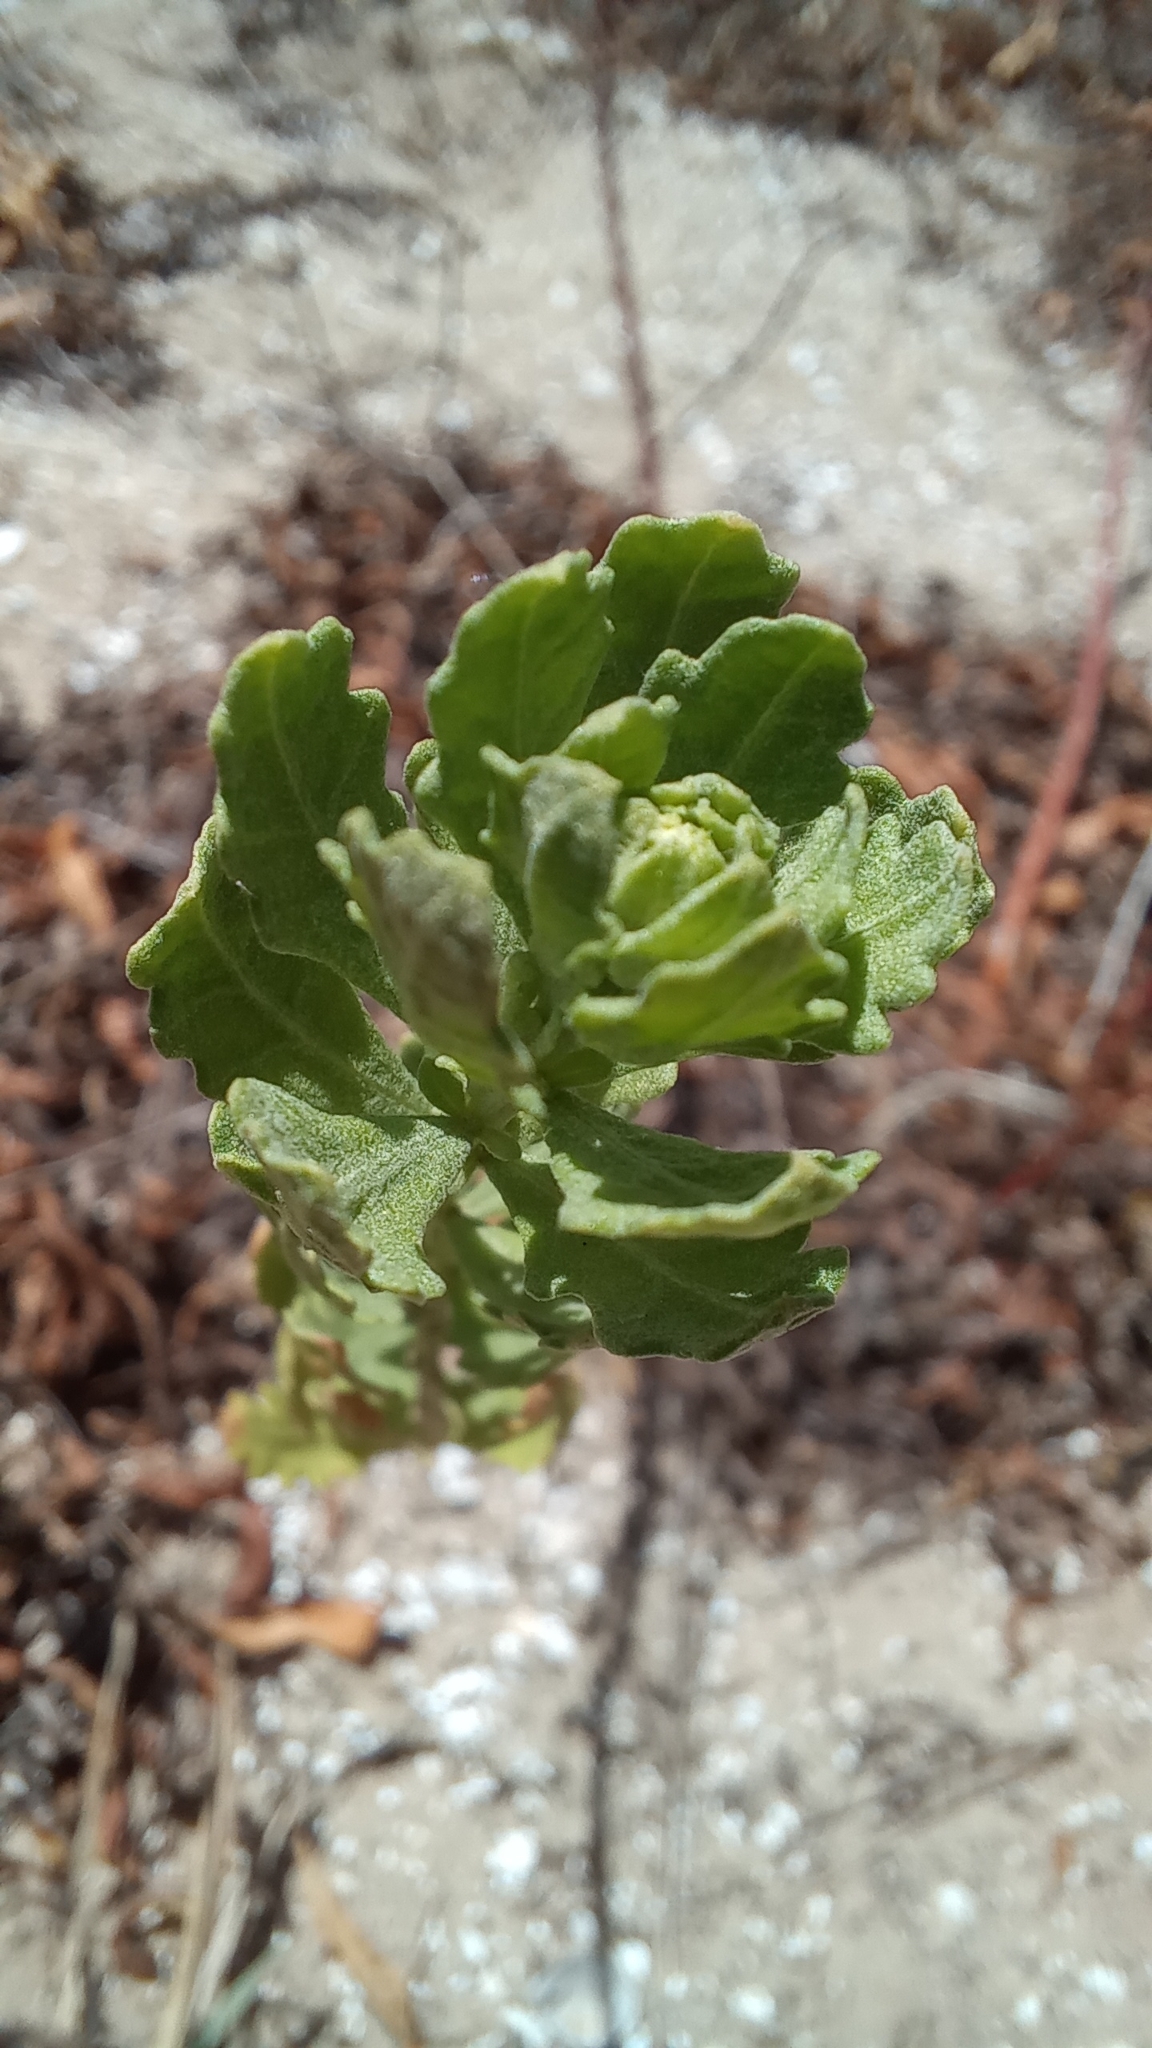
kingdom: Plantae
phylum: Tracheophyta
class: Magnoliopsida
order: Caryophyllales
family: Amaranthaceae
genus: Dysphania
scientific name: Dysphania retusa
